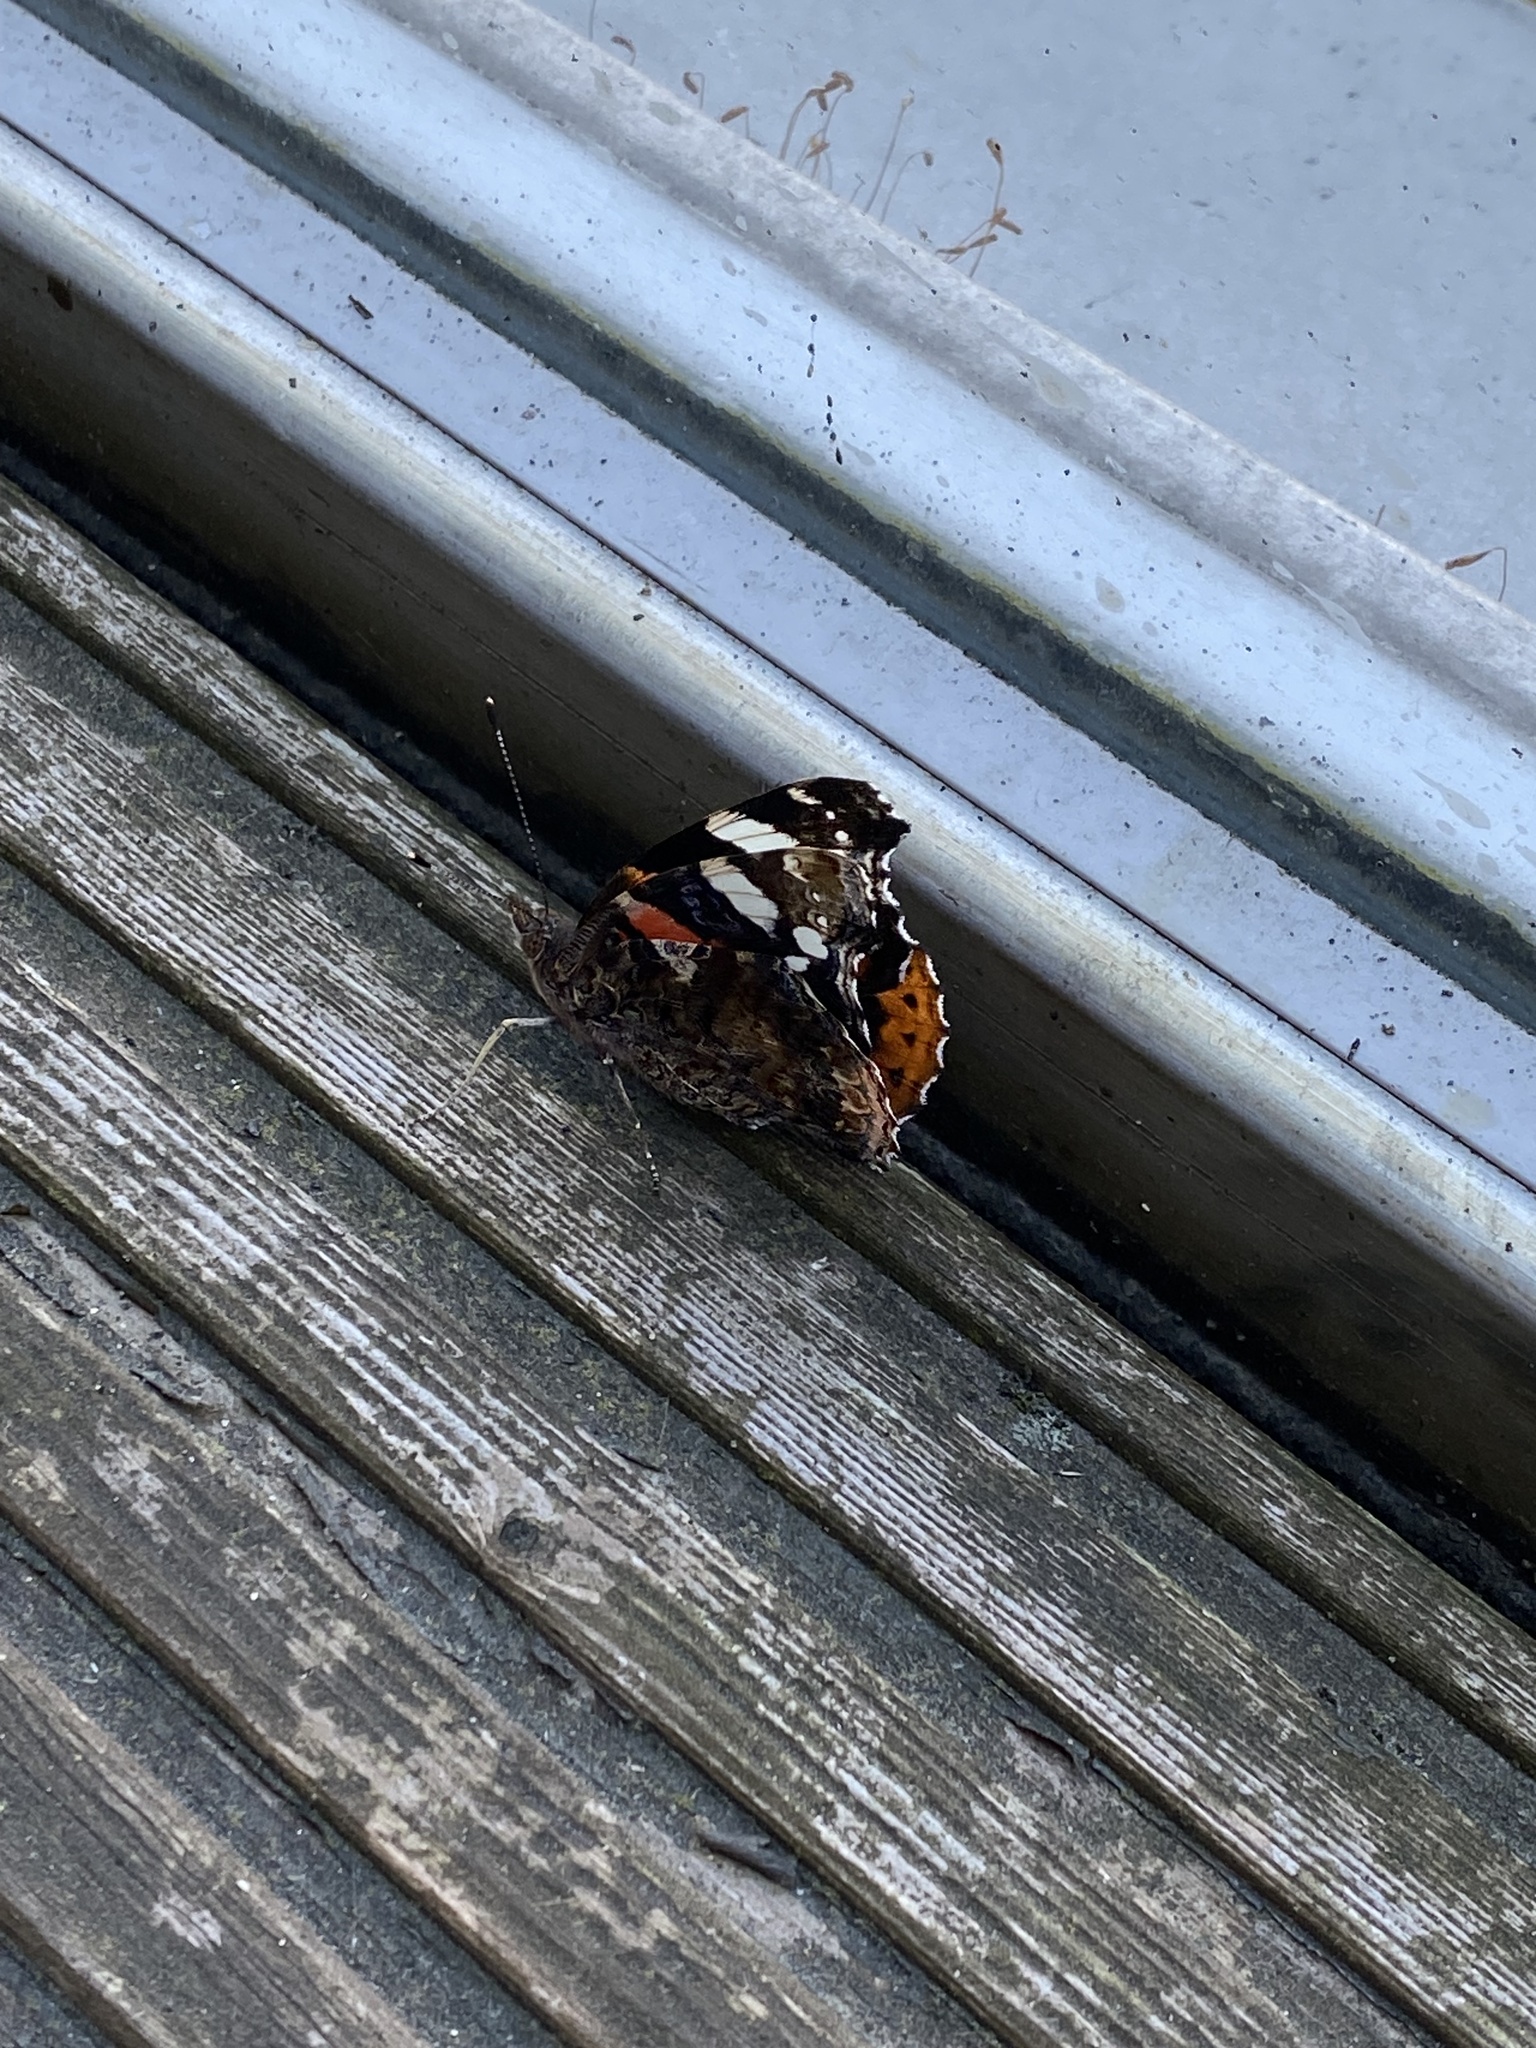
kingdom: Animalia
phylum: Arthropoda
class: Insecta
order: Lepidoptera
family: Nymphalidae
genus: Vanessa
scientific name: Vanessa atalanta
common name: Red admiral
